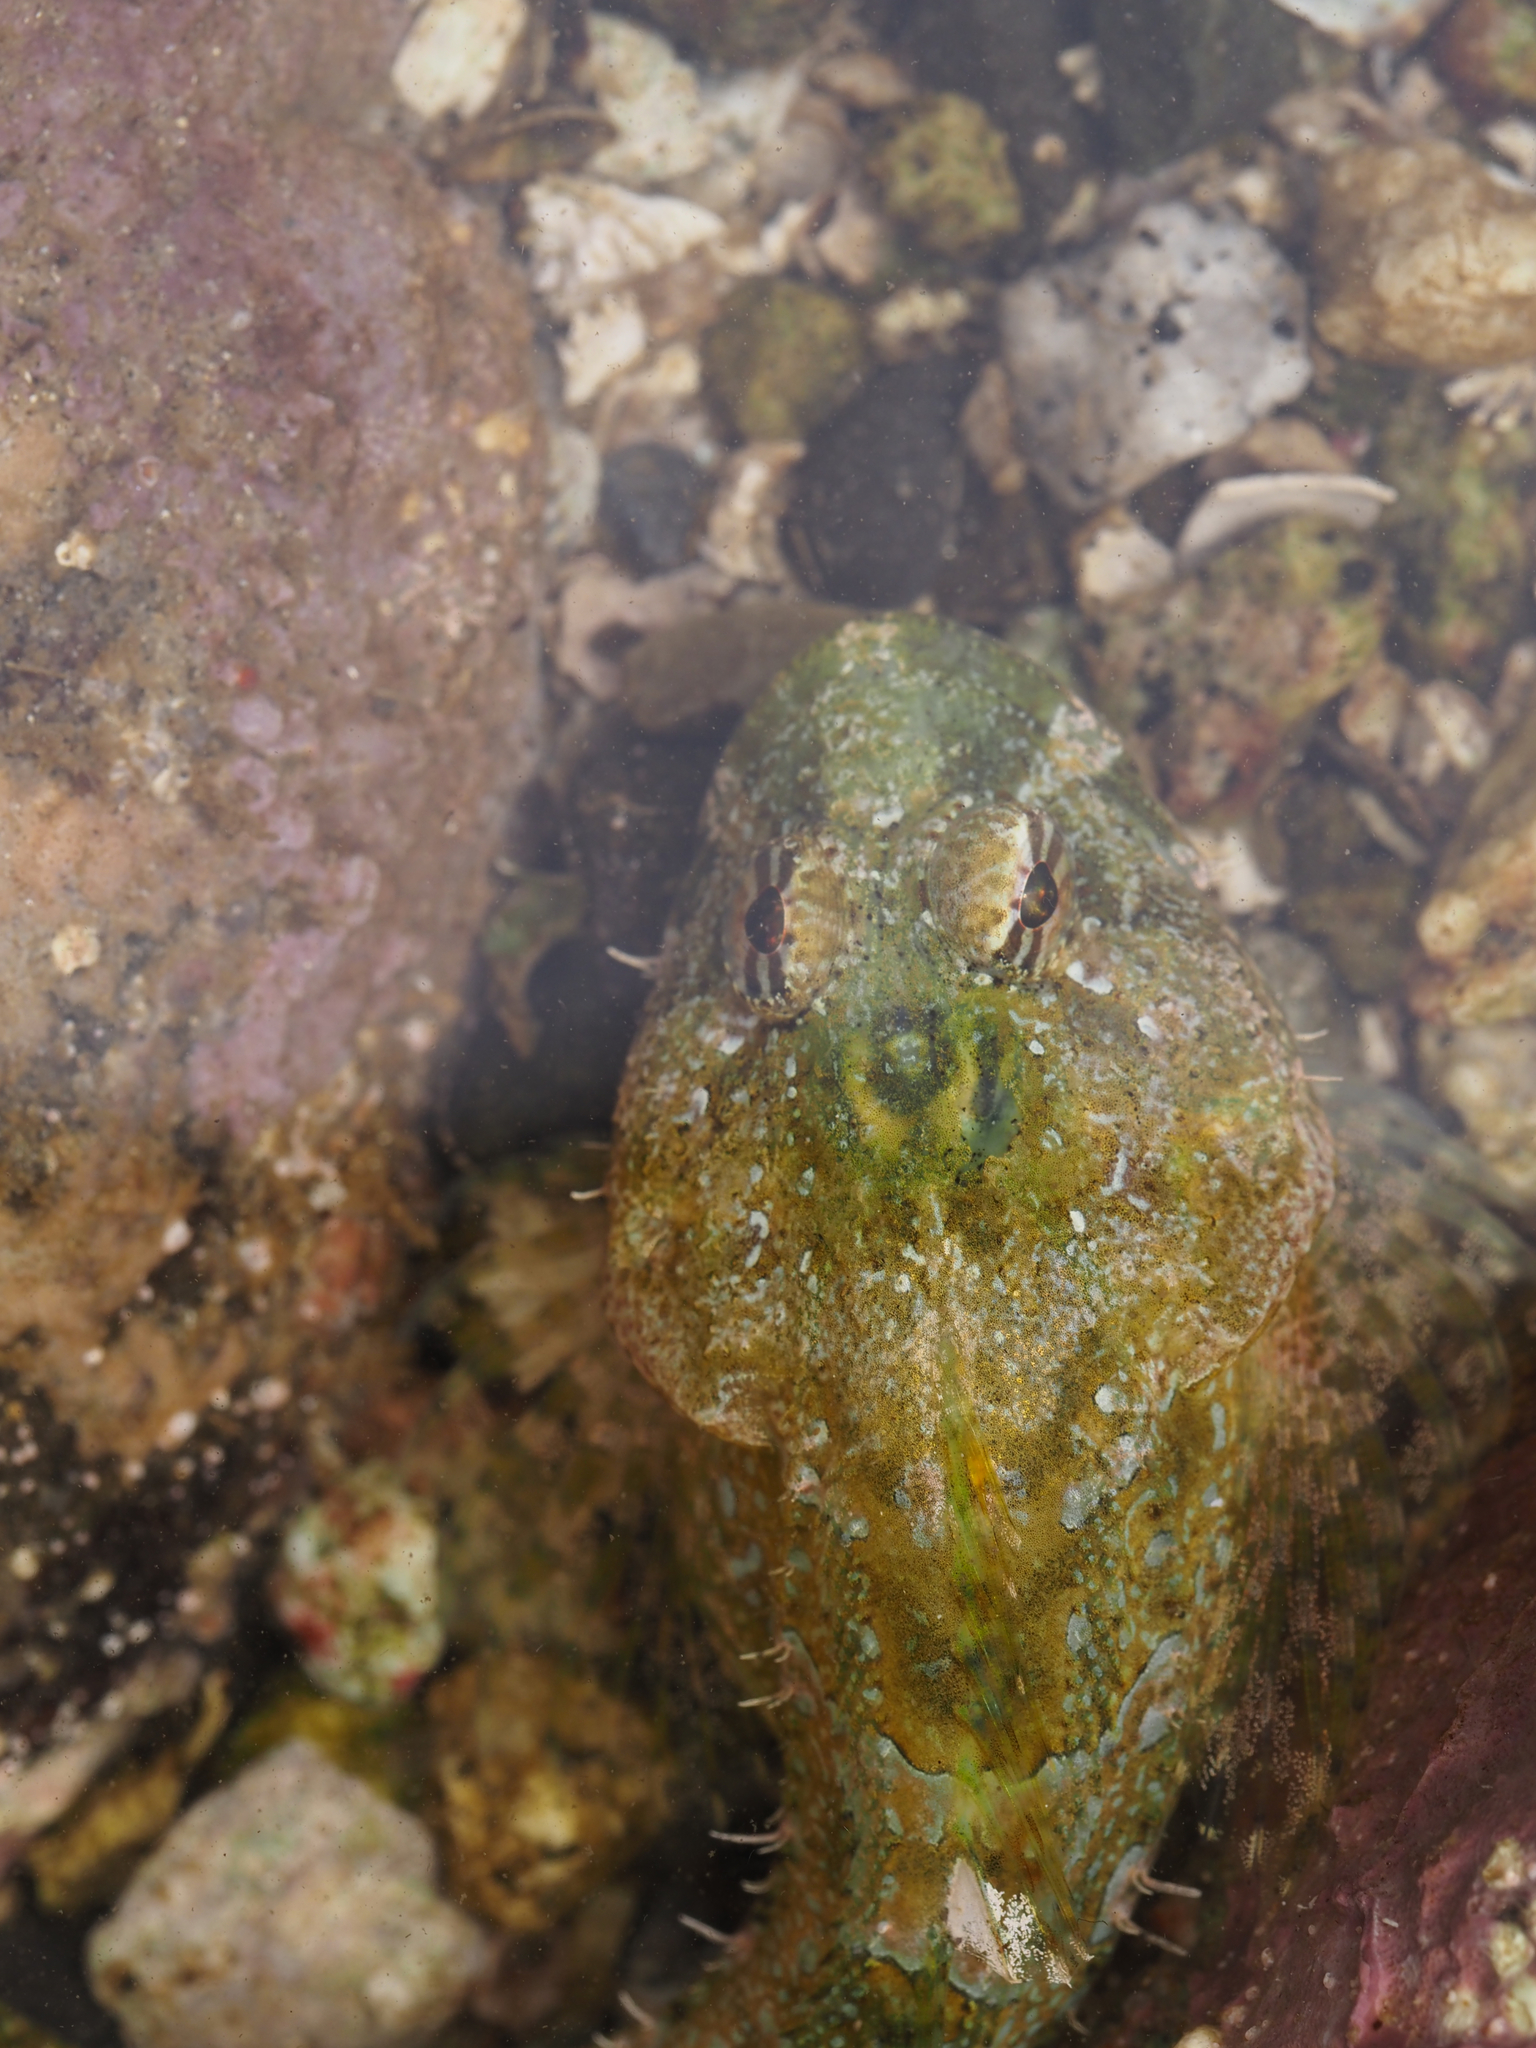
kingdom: Animalia
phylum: Chordata
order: Scorpaeniformes
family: Cottidae
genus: Artedius
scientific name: Artedius lateralis
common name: Smooth-head sculpin
